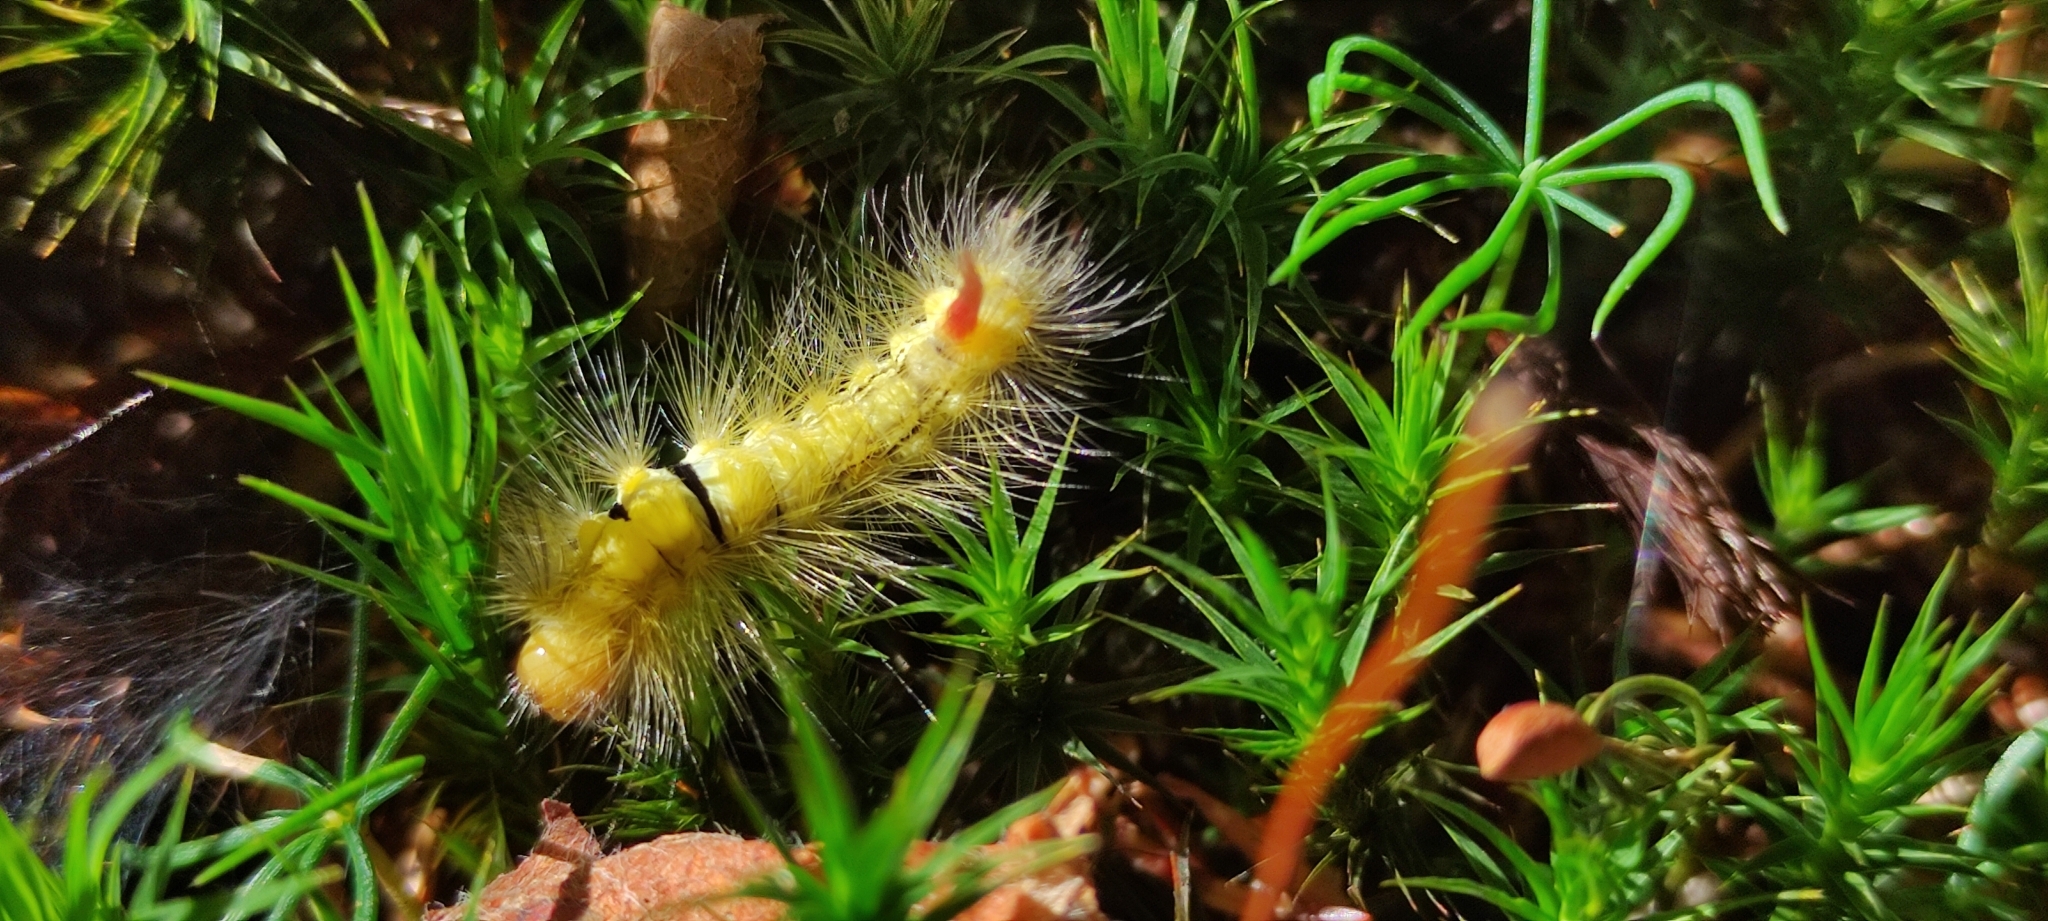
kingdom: Animalia
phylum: Arthropoda
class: Insecta
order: Lepidoptera
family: Erebidae
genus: Calliteara
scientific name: Calliteara pudibunda
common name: Pale tussock
